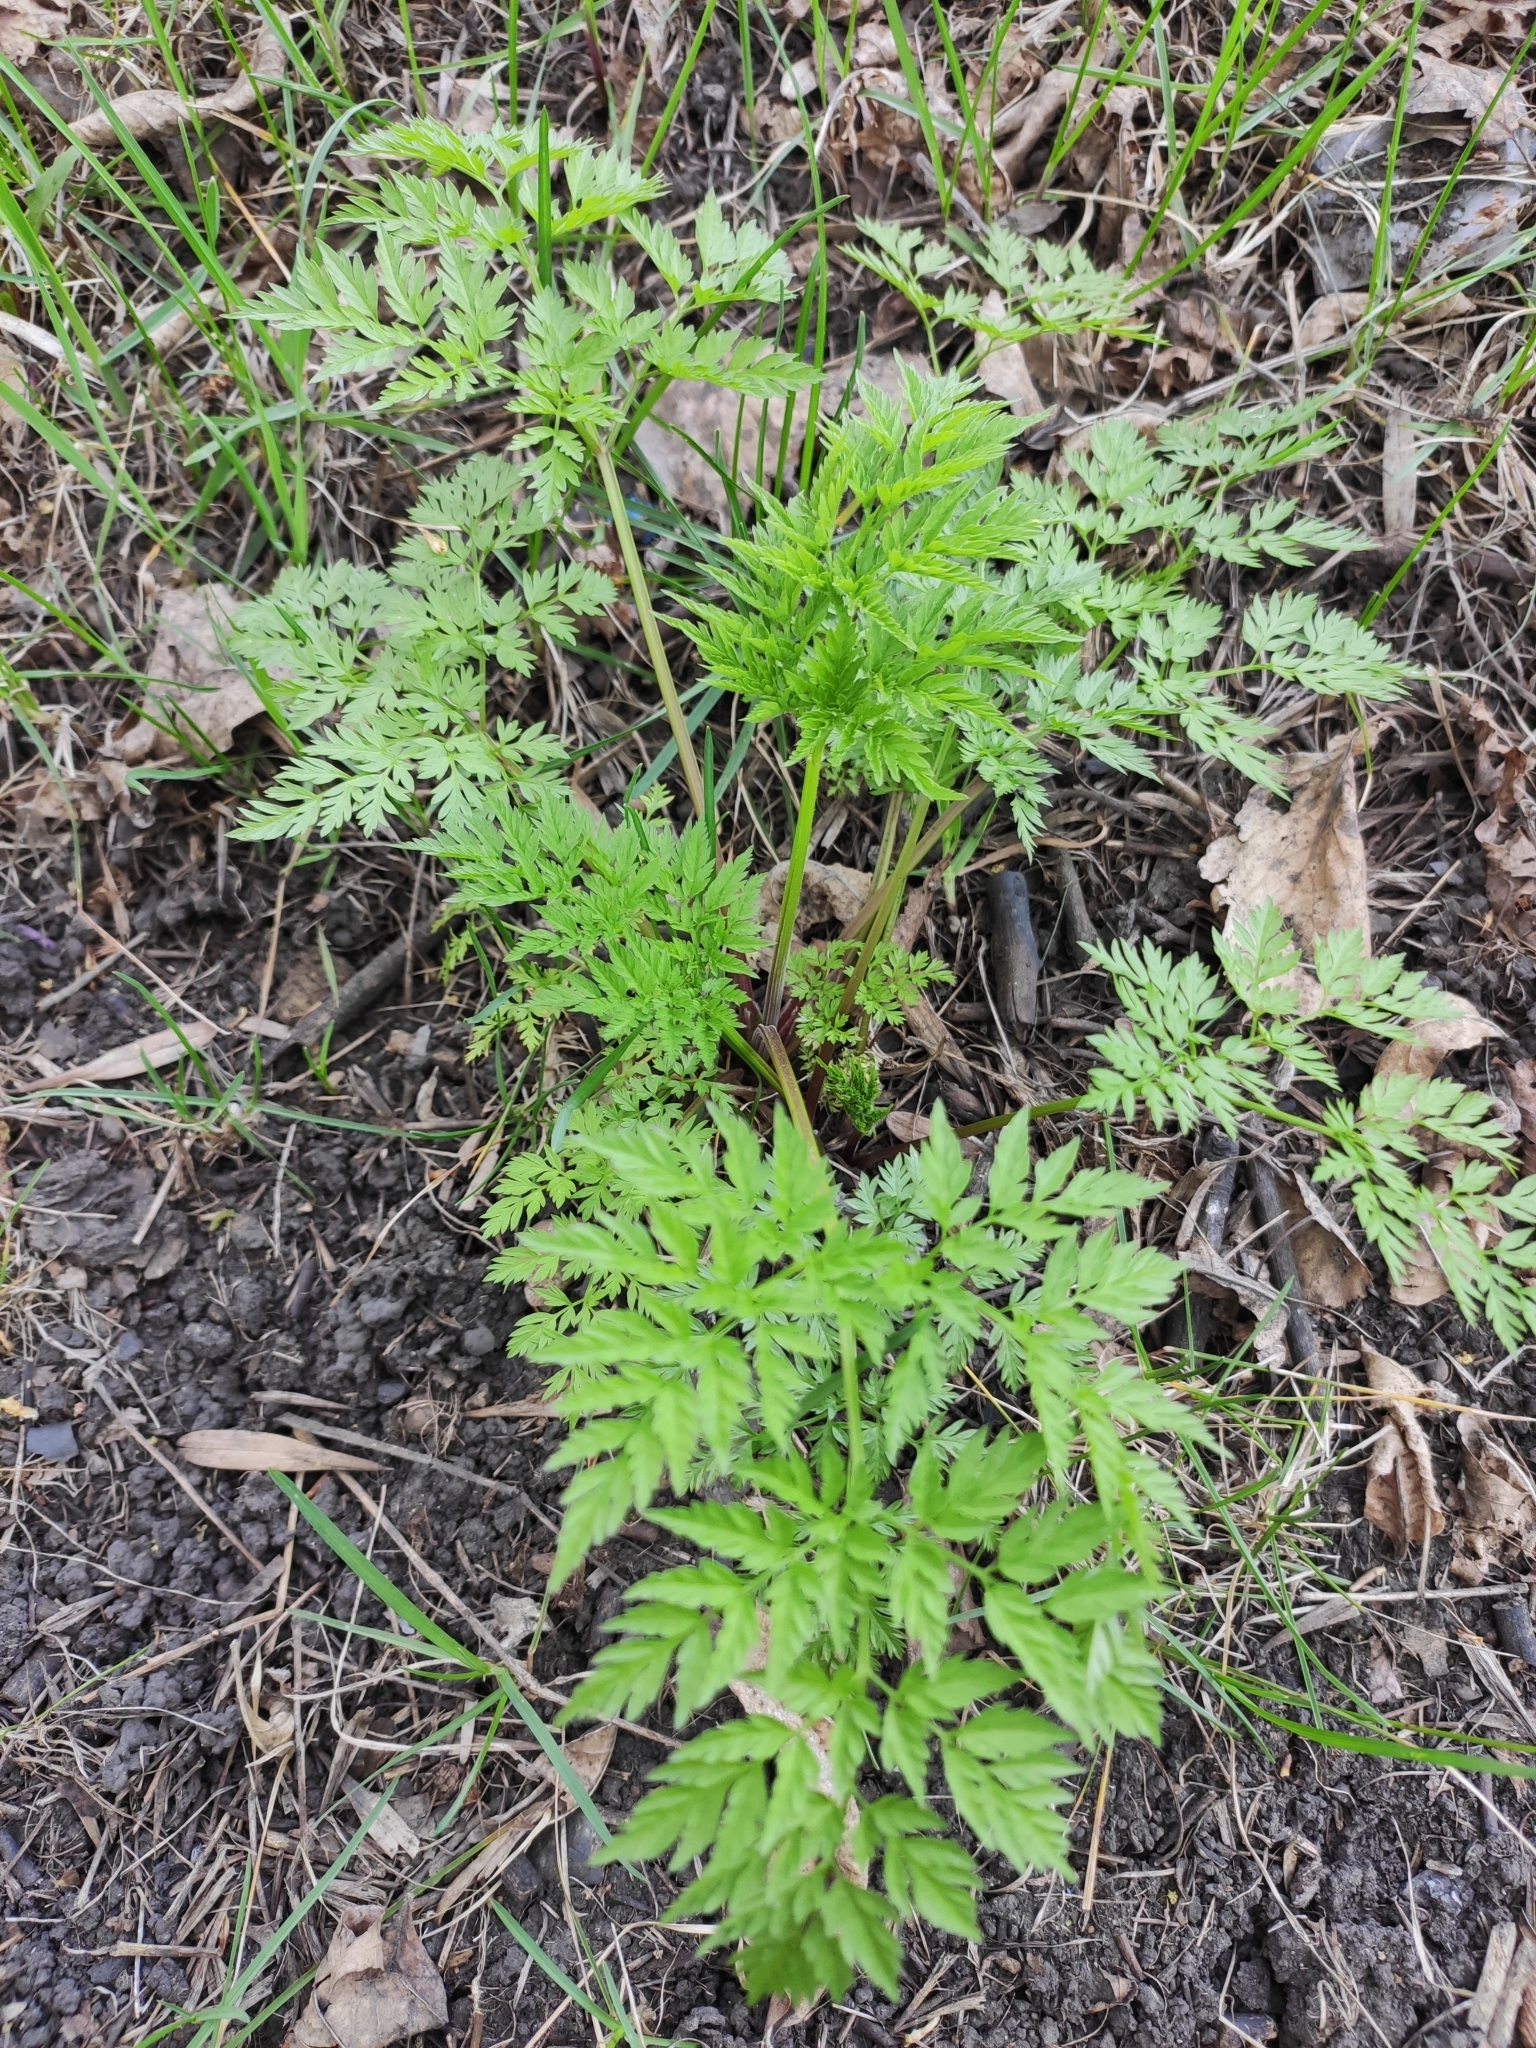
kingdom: Plantae
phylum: Tracheophyta
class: Magnoliopsida
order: Apiales
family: Apiaceae
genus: Anthriscus
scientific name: Anthriscus sylvestris
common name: Cow parsley
